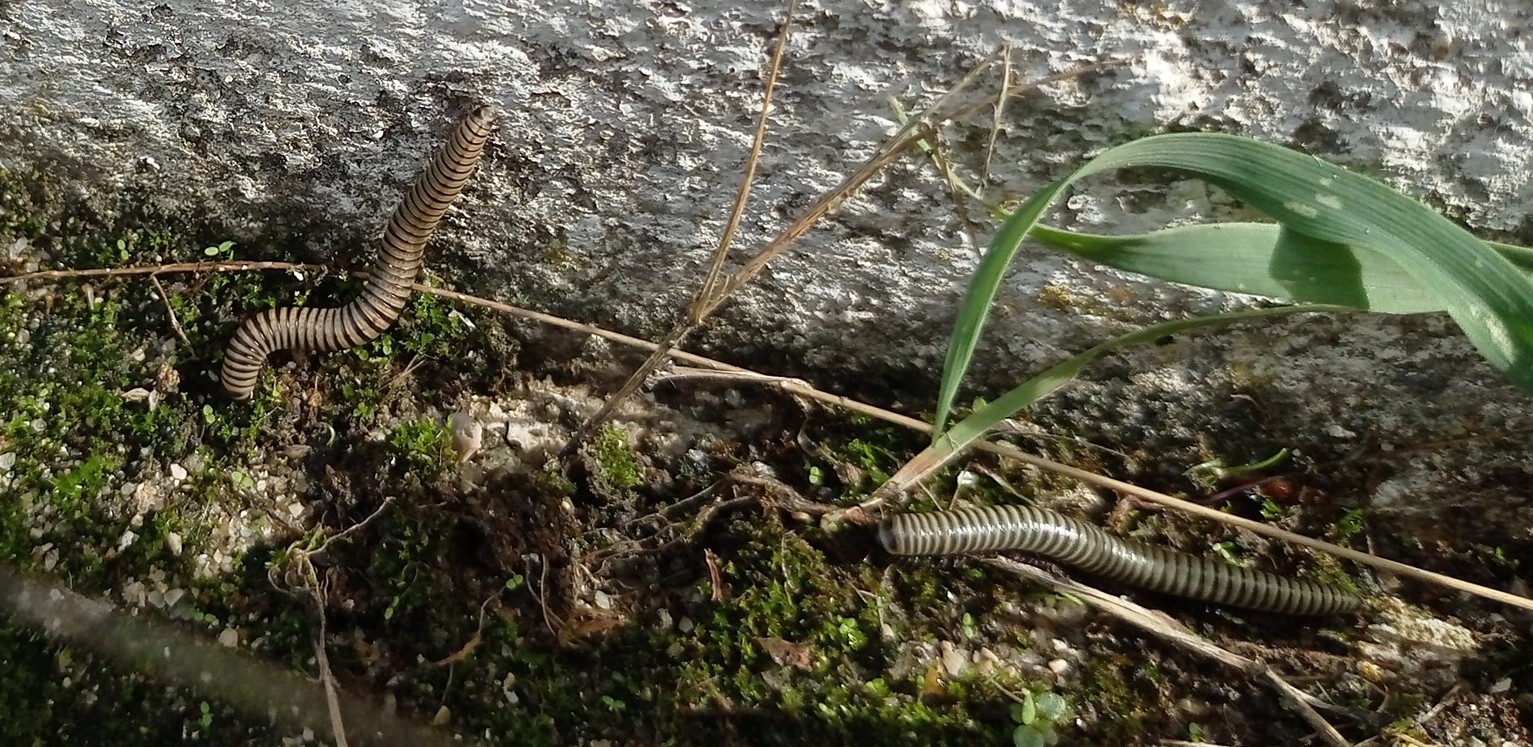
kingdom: Animalia
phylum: Arthropoda
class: Diplopoda
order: Julida
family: Julidae
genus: Ommatoiulus
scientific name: Ommatoiulus lusitanus
